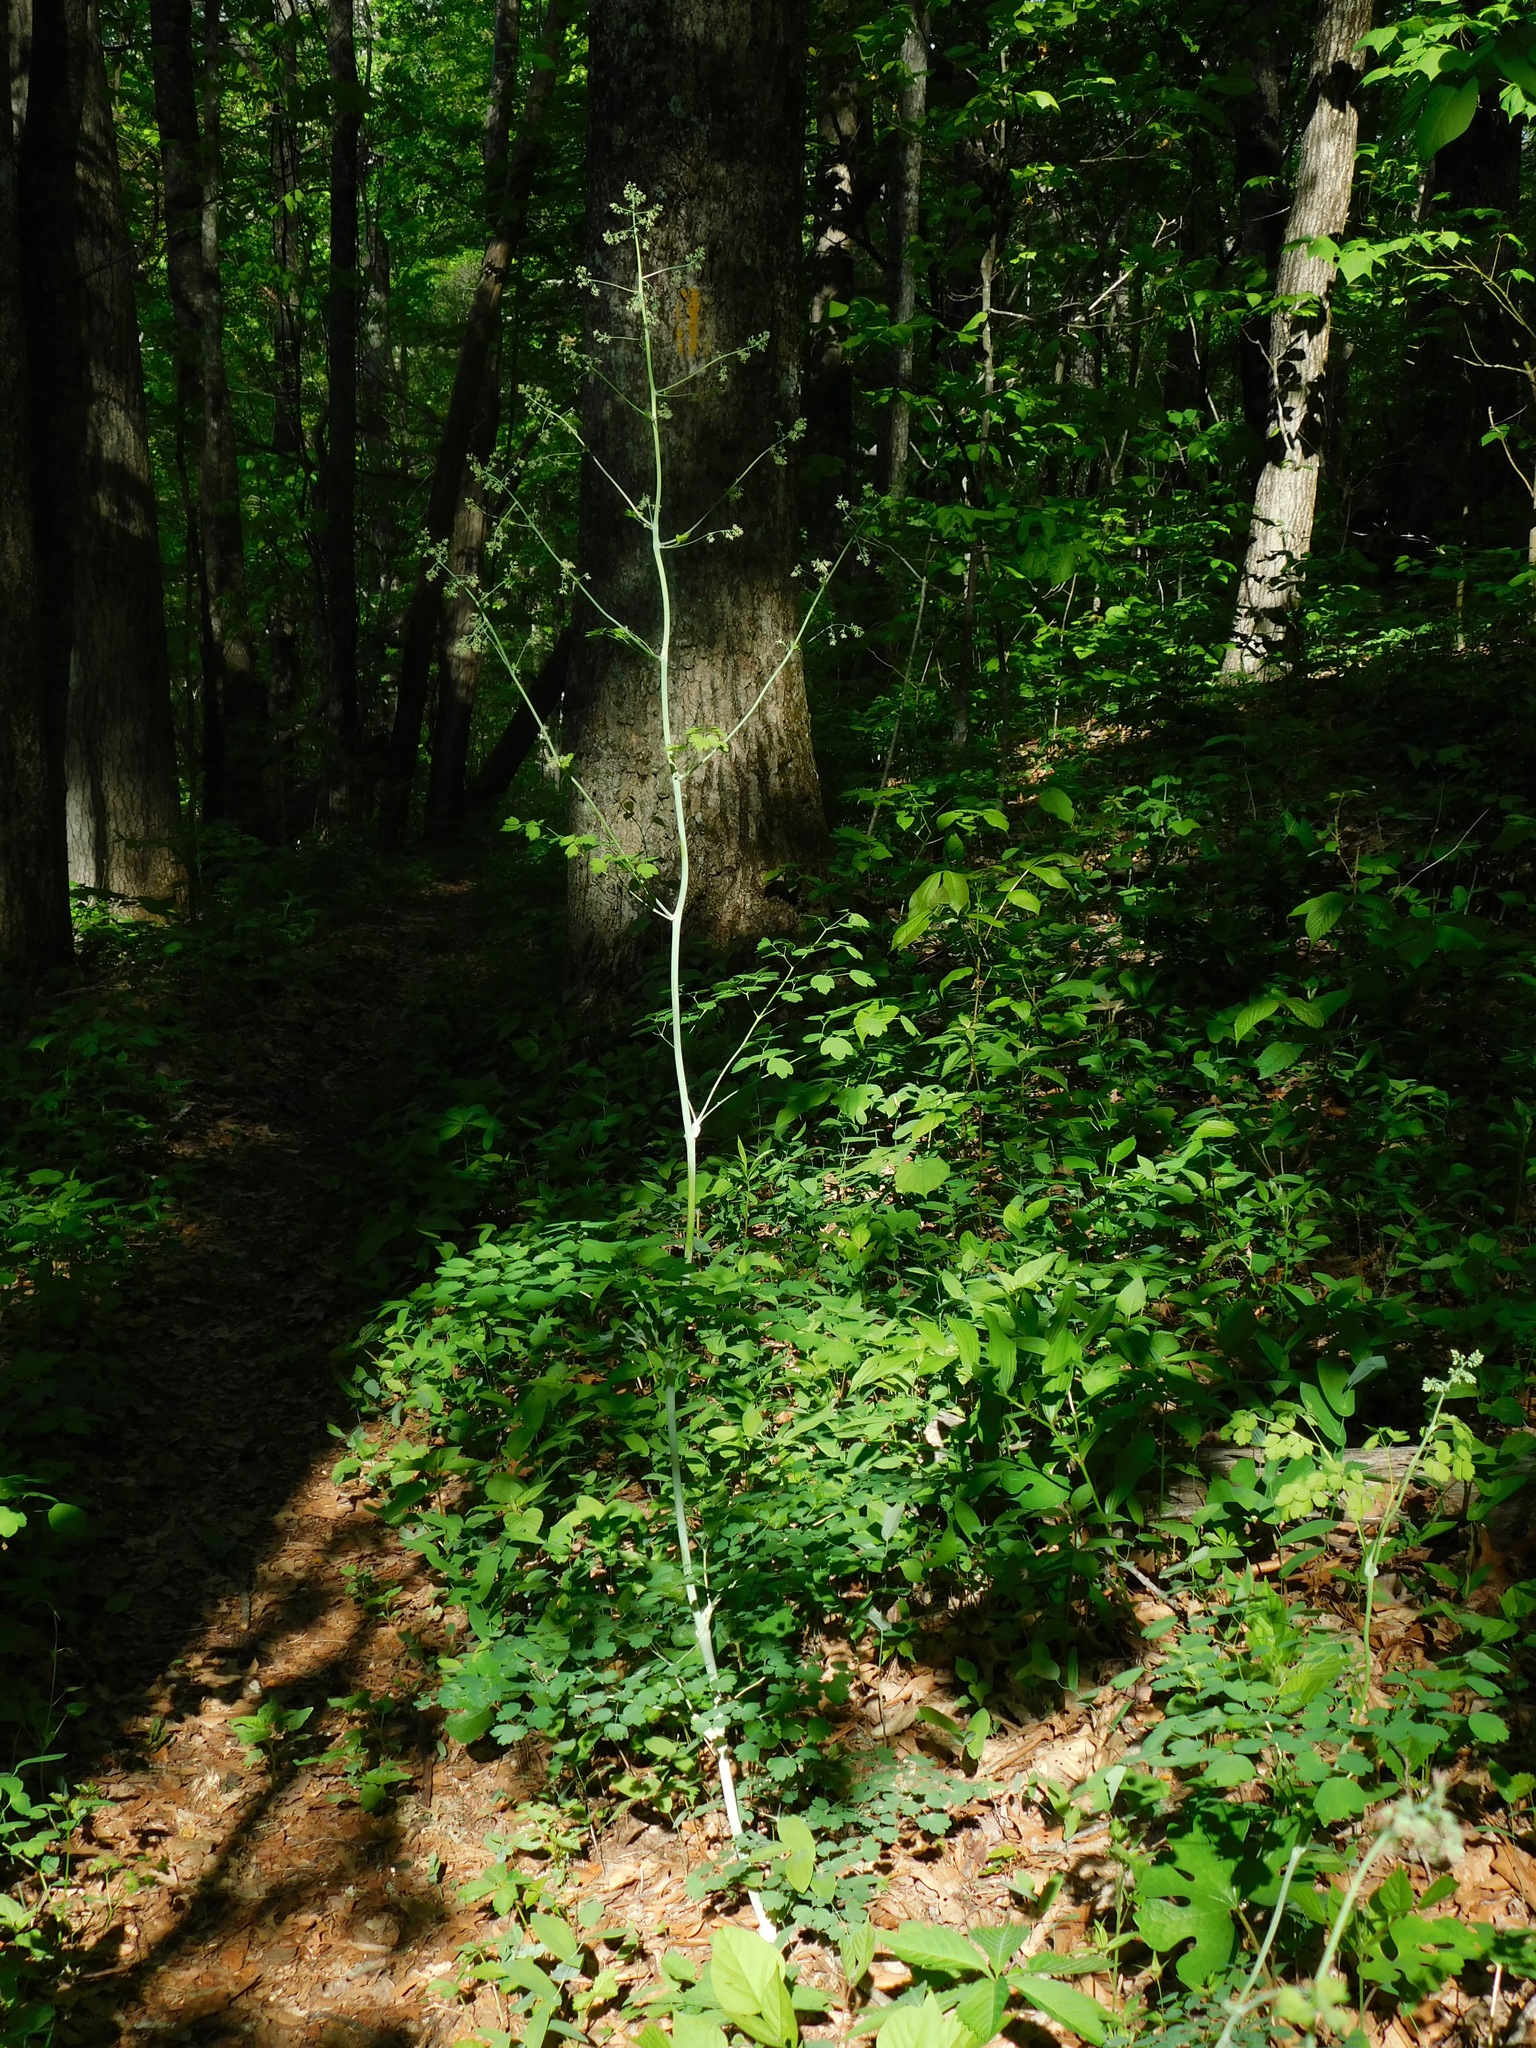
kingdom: Plantae
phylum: Tracheophyta
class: Magnoliopsida
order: Ranunculales
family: Ranunculaceae
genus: Thalictrum
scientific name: Thalictrum revolutum
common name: Waxy meadow-rue
